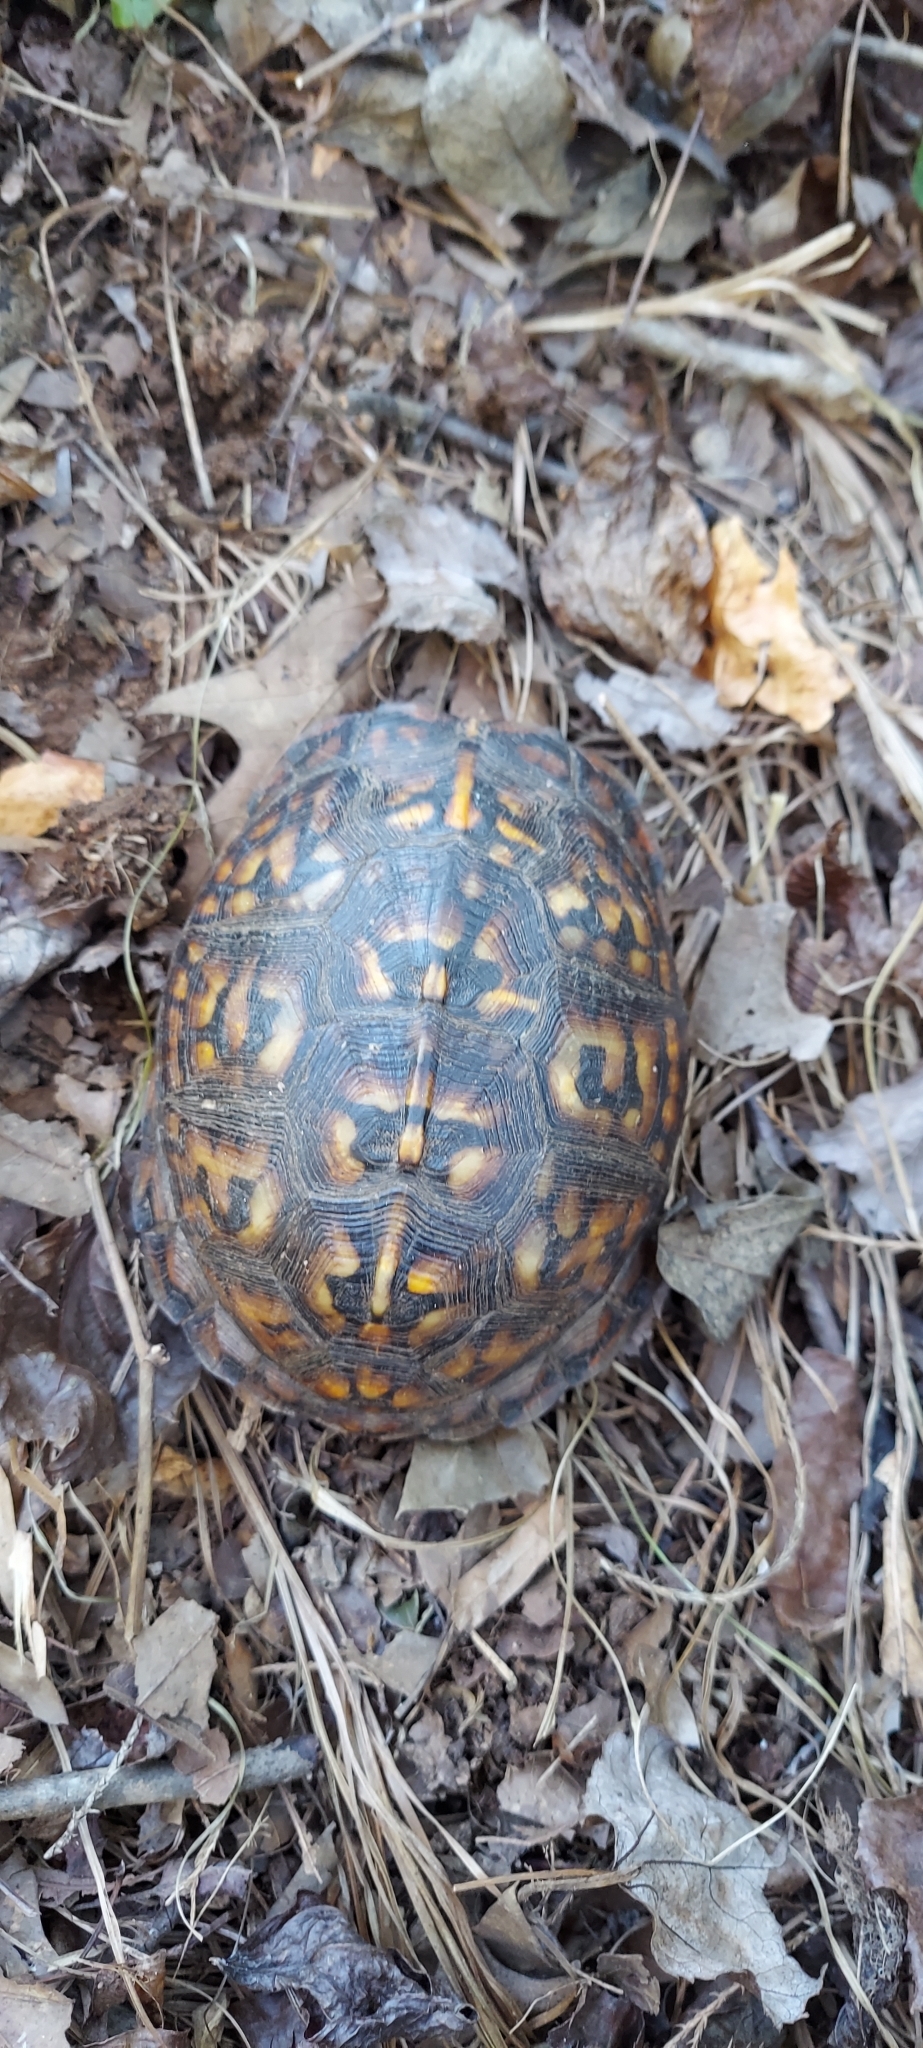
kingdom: Animalia
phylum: Chordata
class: Testudines
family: Emydidae
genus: Terrapene
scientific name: Terrapene carolina
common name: Common box turtle
